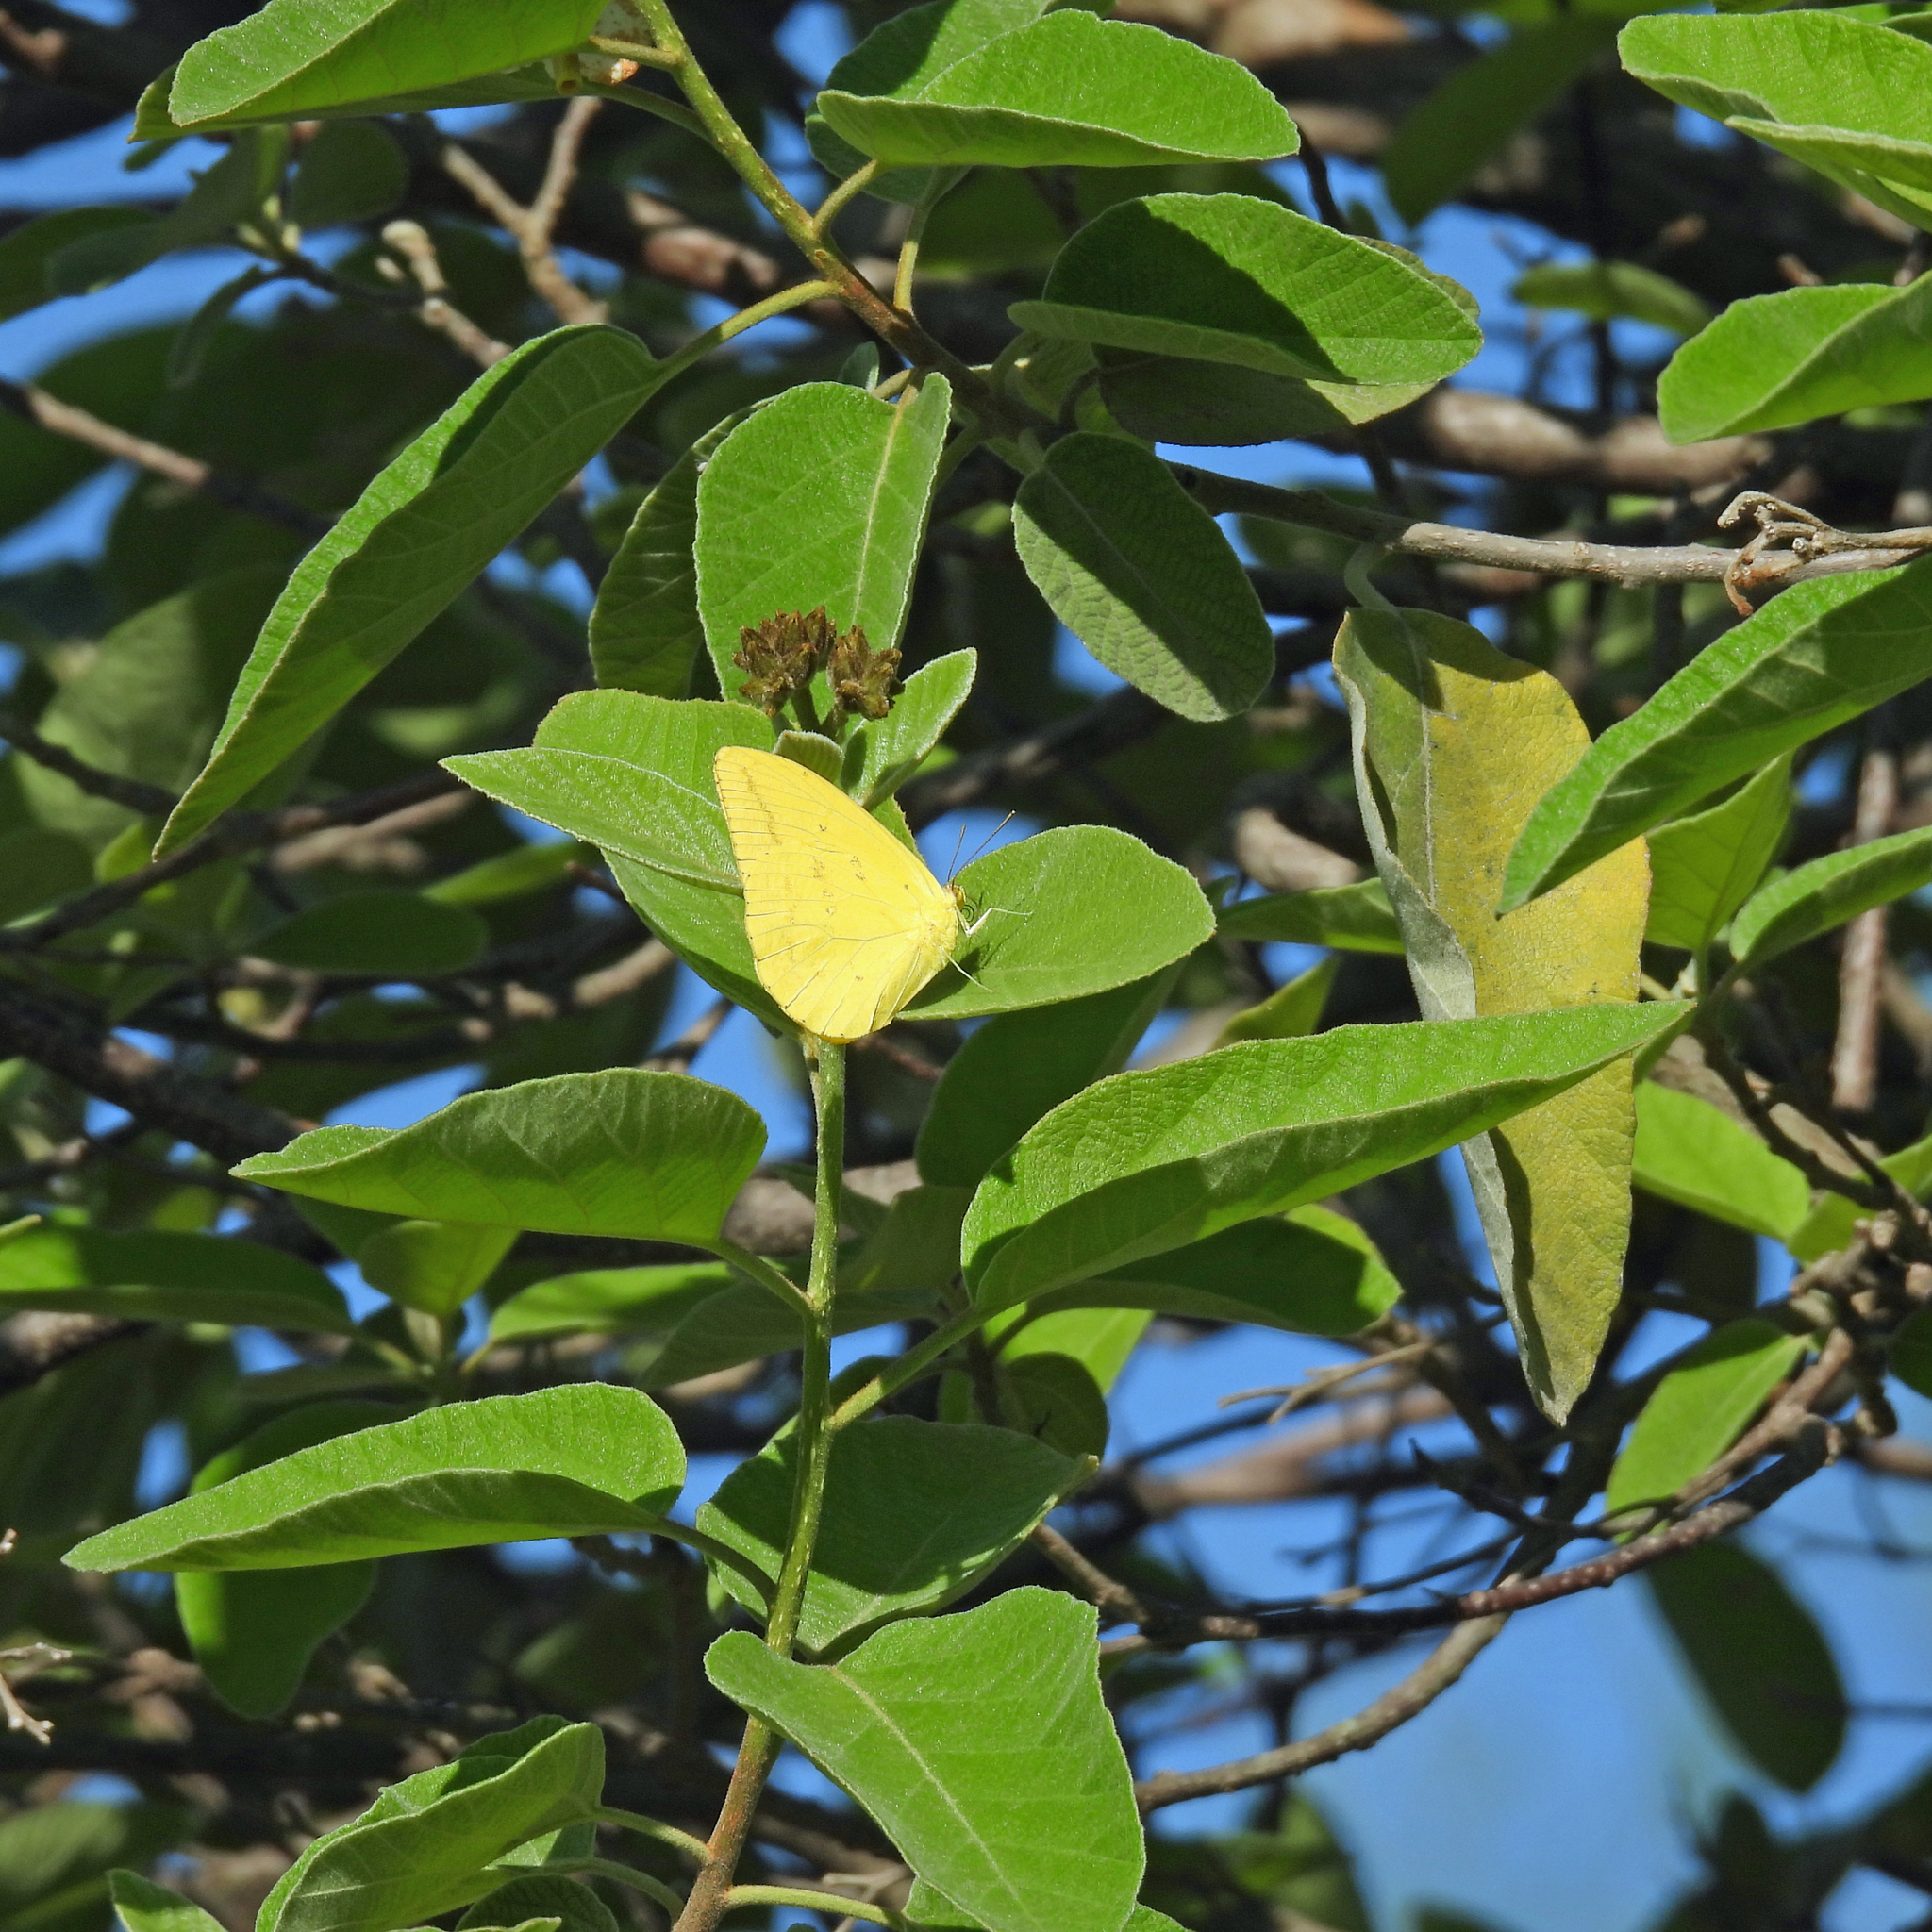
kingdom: Animalia
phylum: Arthropoda
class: Insecta
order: Lepidoptera
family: Pieridae
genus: Phoebis
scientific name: Phoebis agarithe
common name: Large orange sulphur
